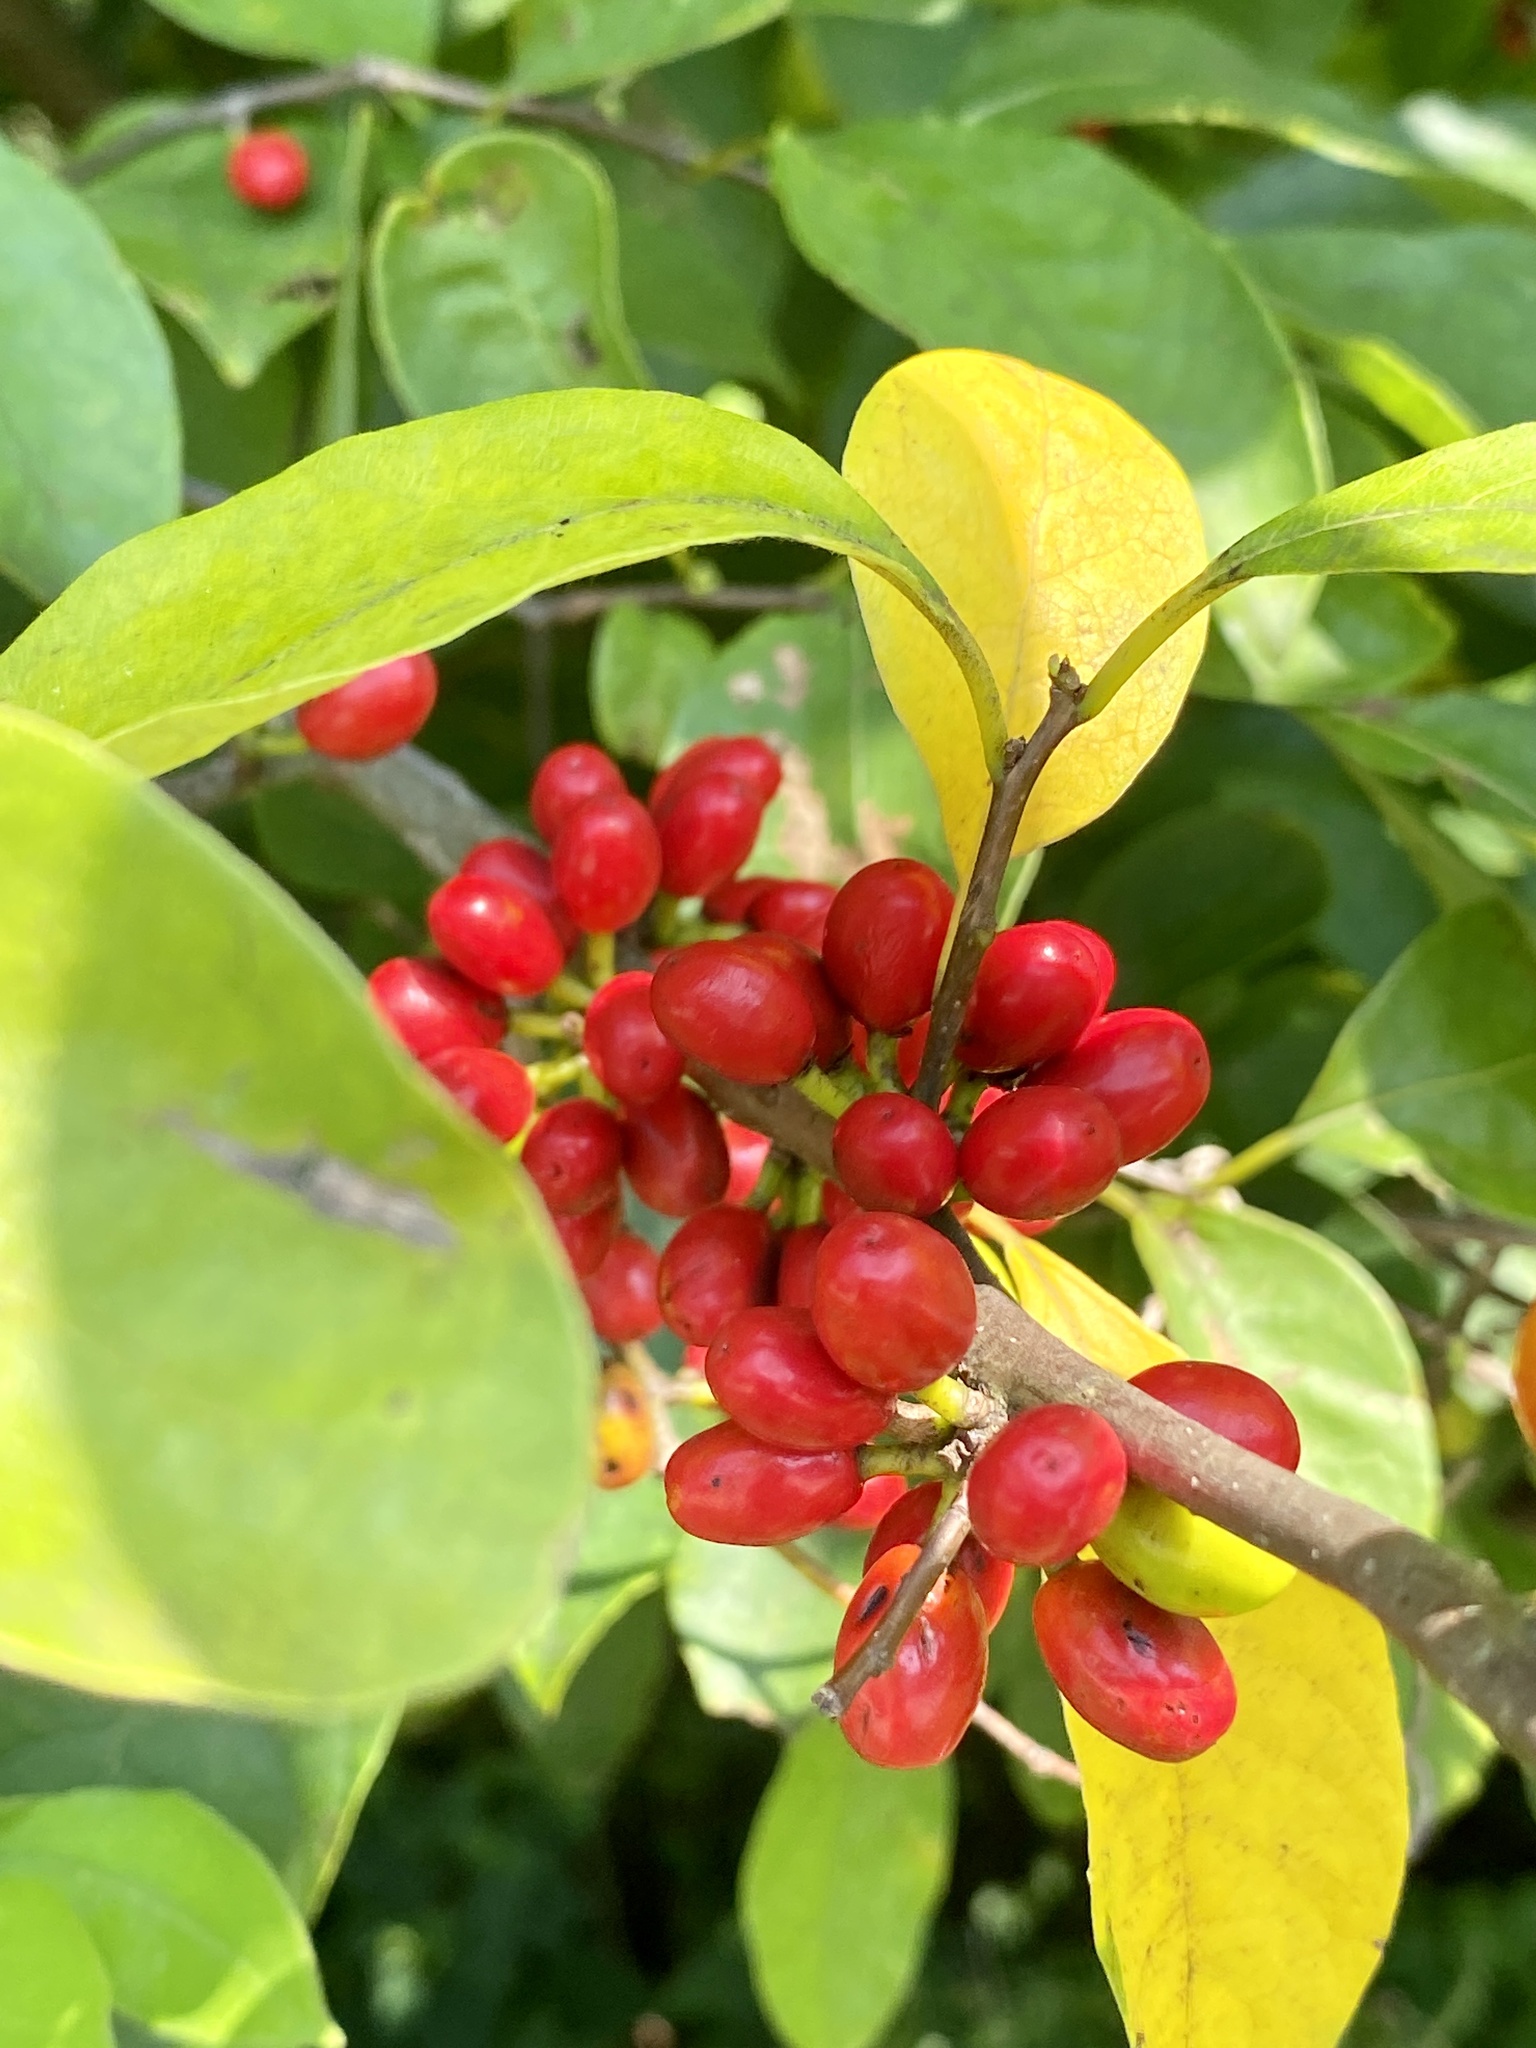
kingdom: Plantae
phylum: Tracheophyta
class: Magnoliopsida
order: Laurales
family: Lauraceae
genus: Lindera
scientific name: Lindera benzoin
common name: Spicebush
